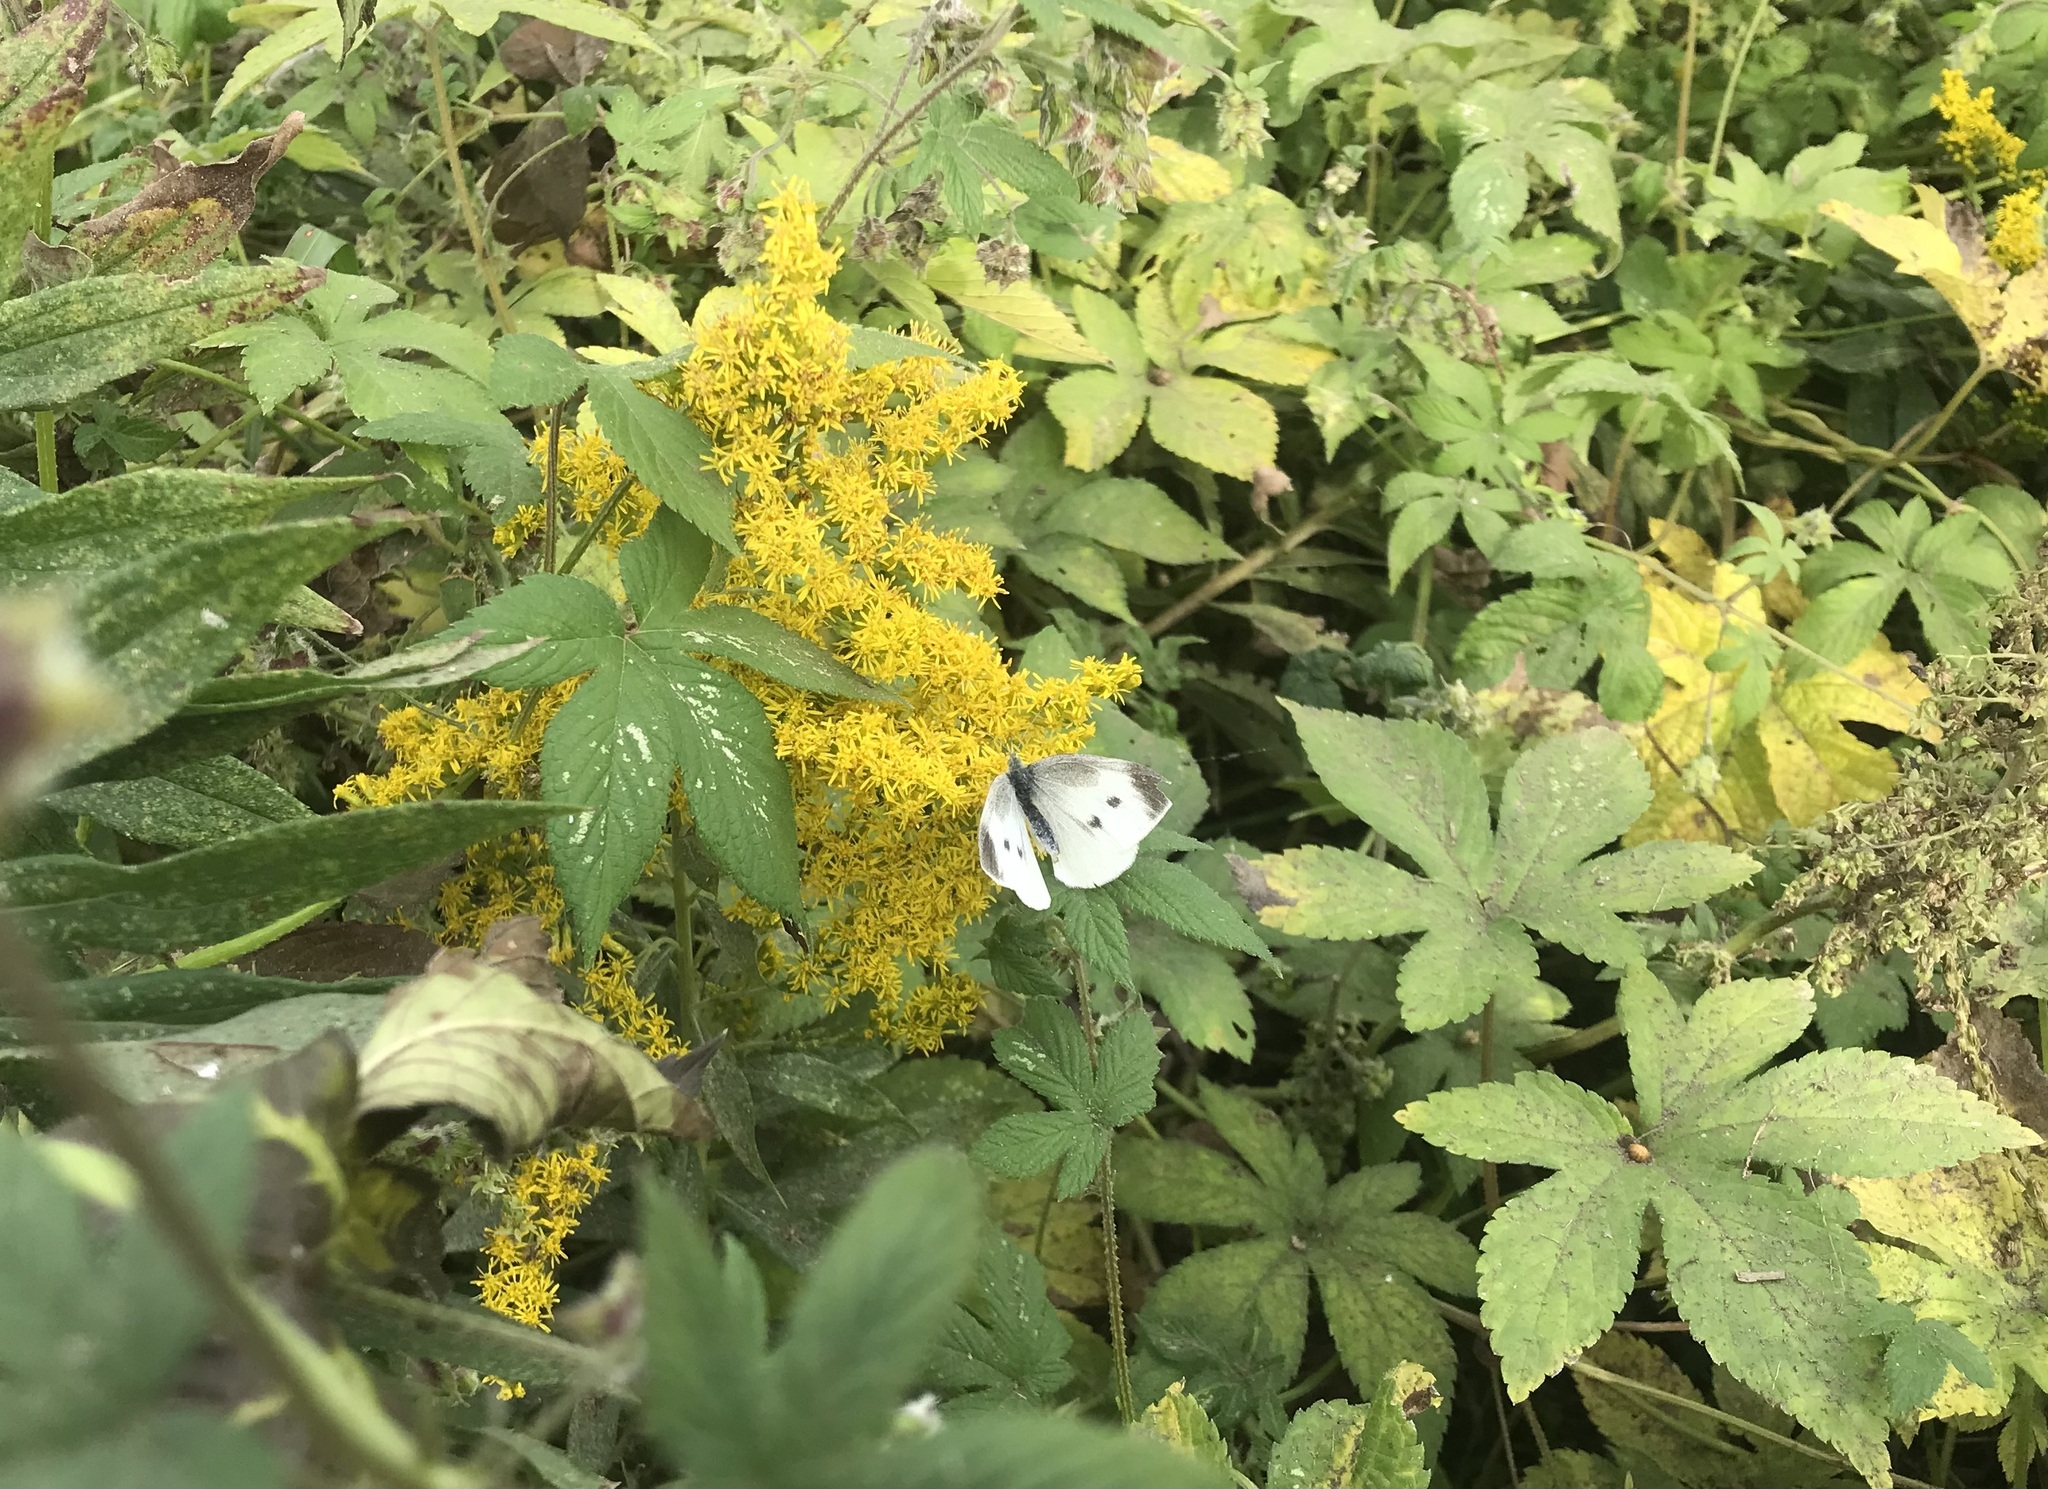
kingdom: Animalia
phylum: Arthropoda
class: Insecta
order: Lepidoptera
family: Pieridae
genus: Pieris
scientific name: Pieris rapae
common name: Small white
